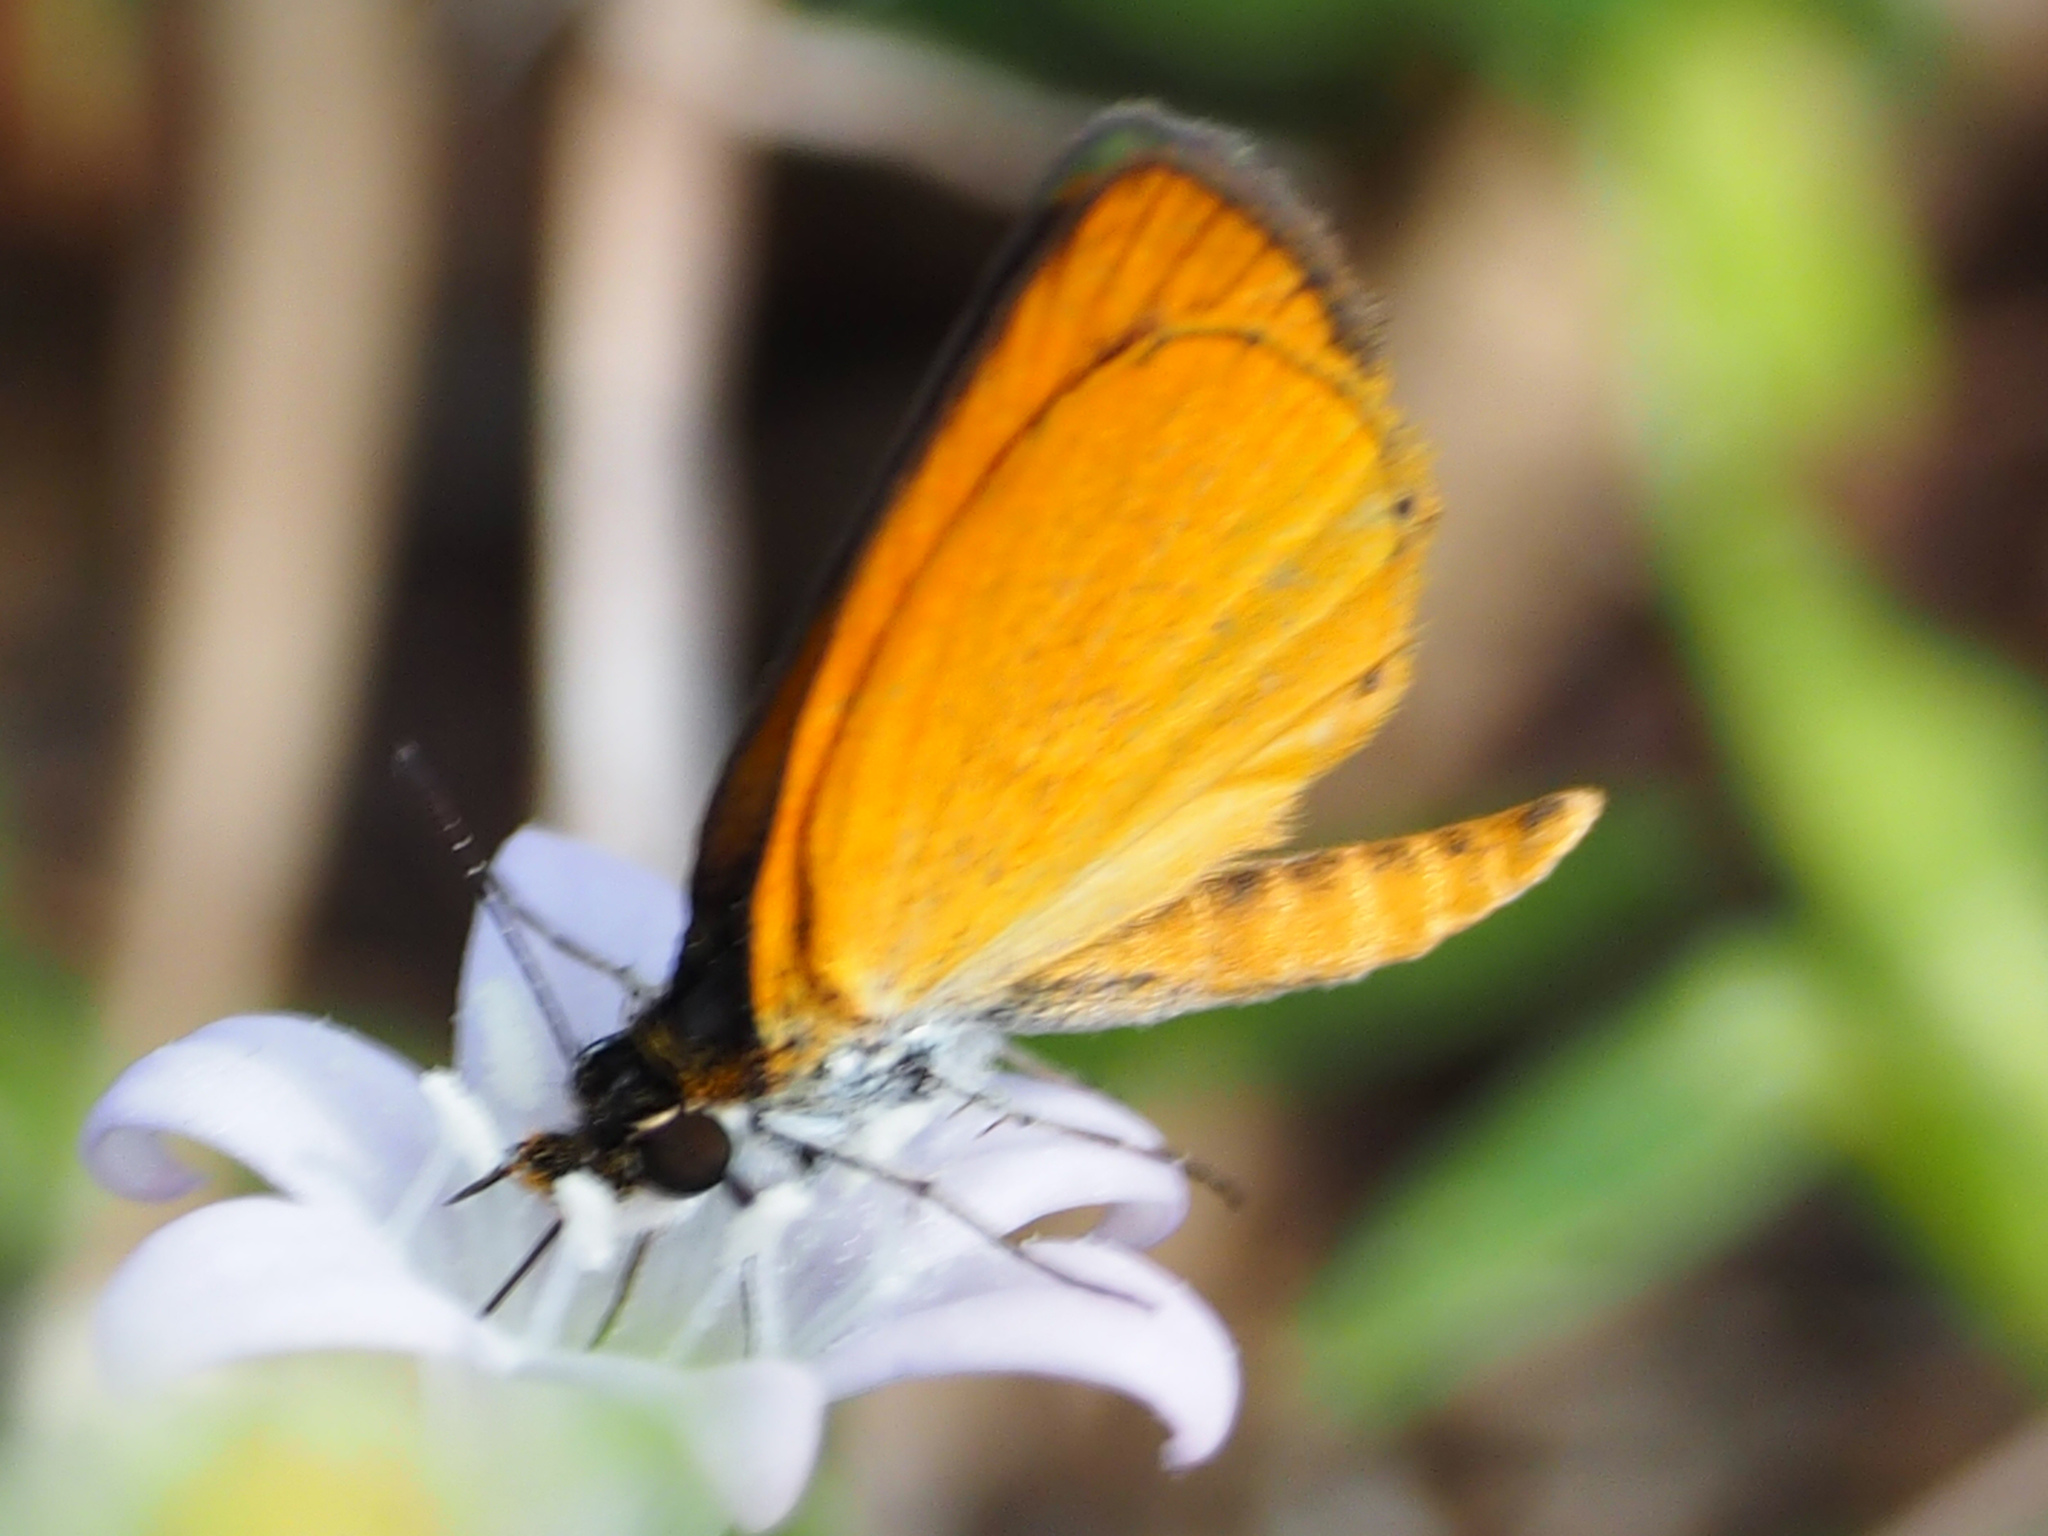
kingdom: Animalia
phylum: Arthropoda
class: Insecta
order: Lepidoptera
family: Hesperiidae
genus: Ancyloxypha
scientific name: Ancyloxypha numitor
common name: Least skipper
